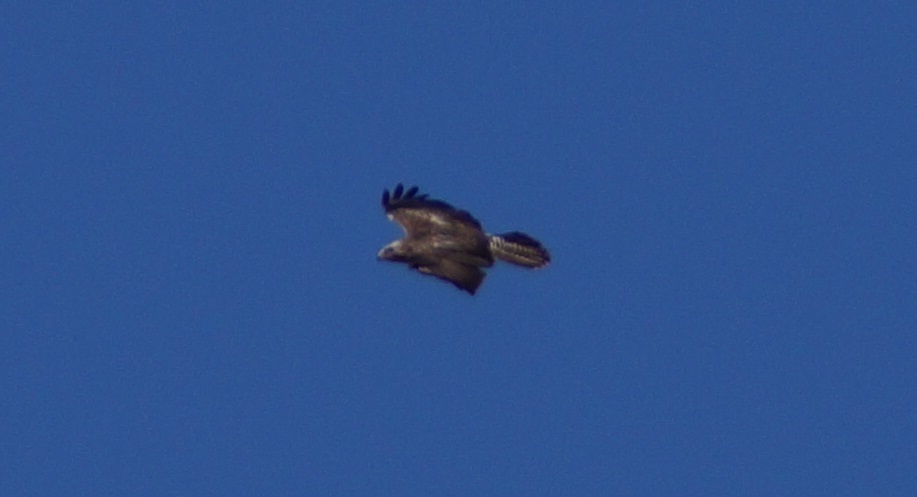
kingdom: Animalia
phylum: Chordata
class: Aves
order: Accipitriformes
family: Accipitridae
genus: Buteo
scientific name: Buteo buteo
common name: Common buzzard
